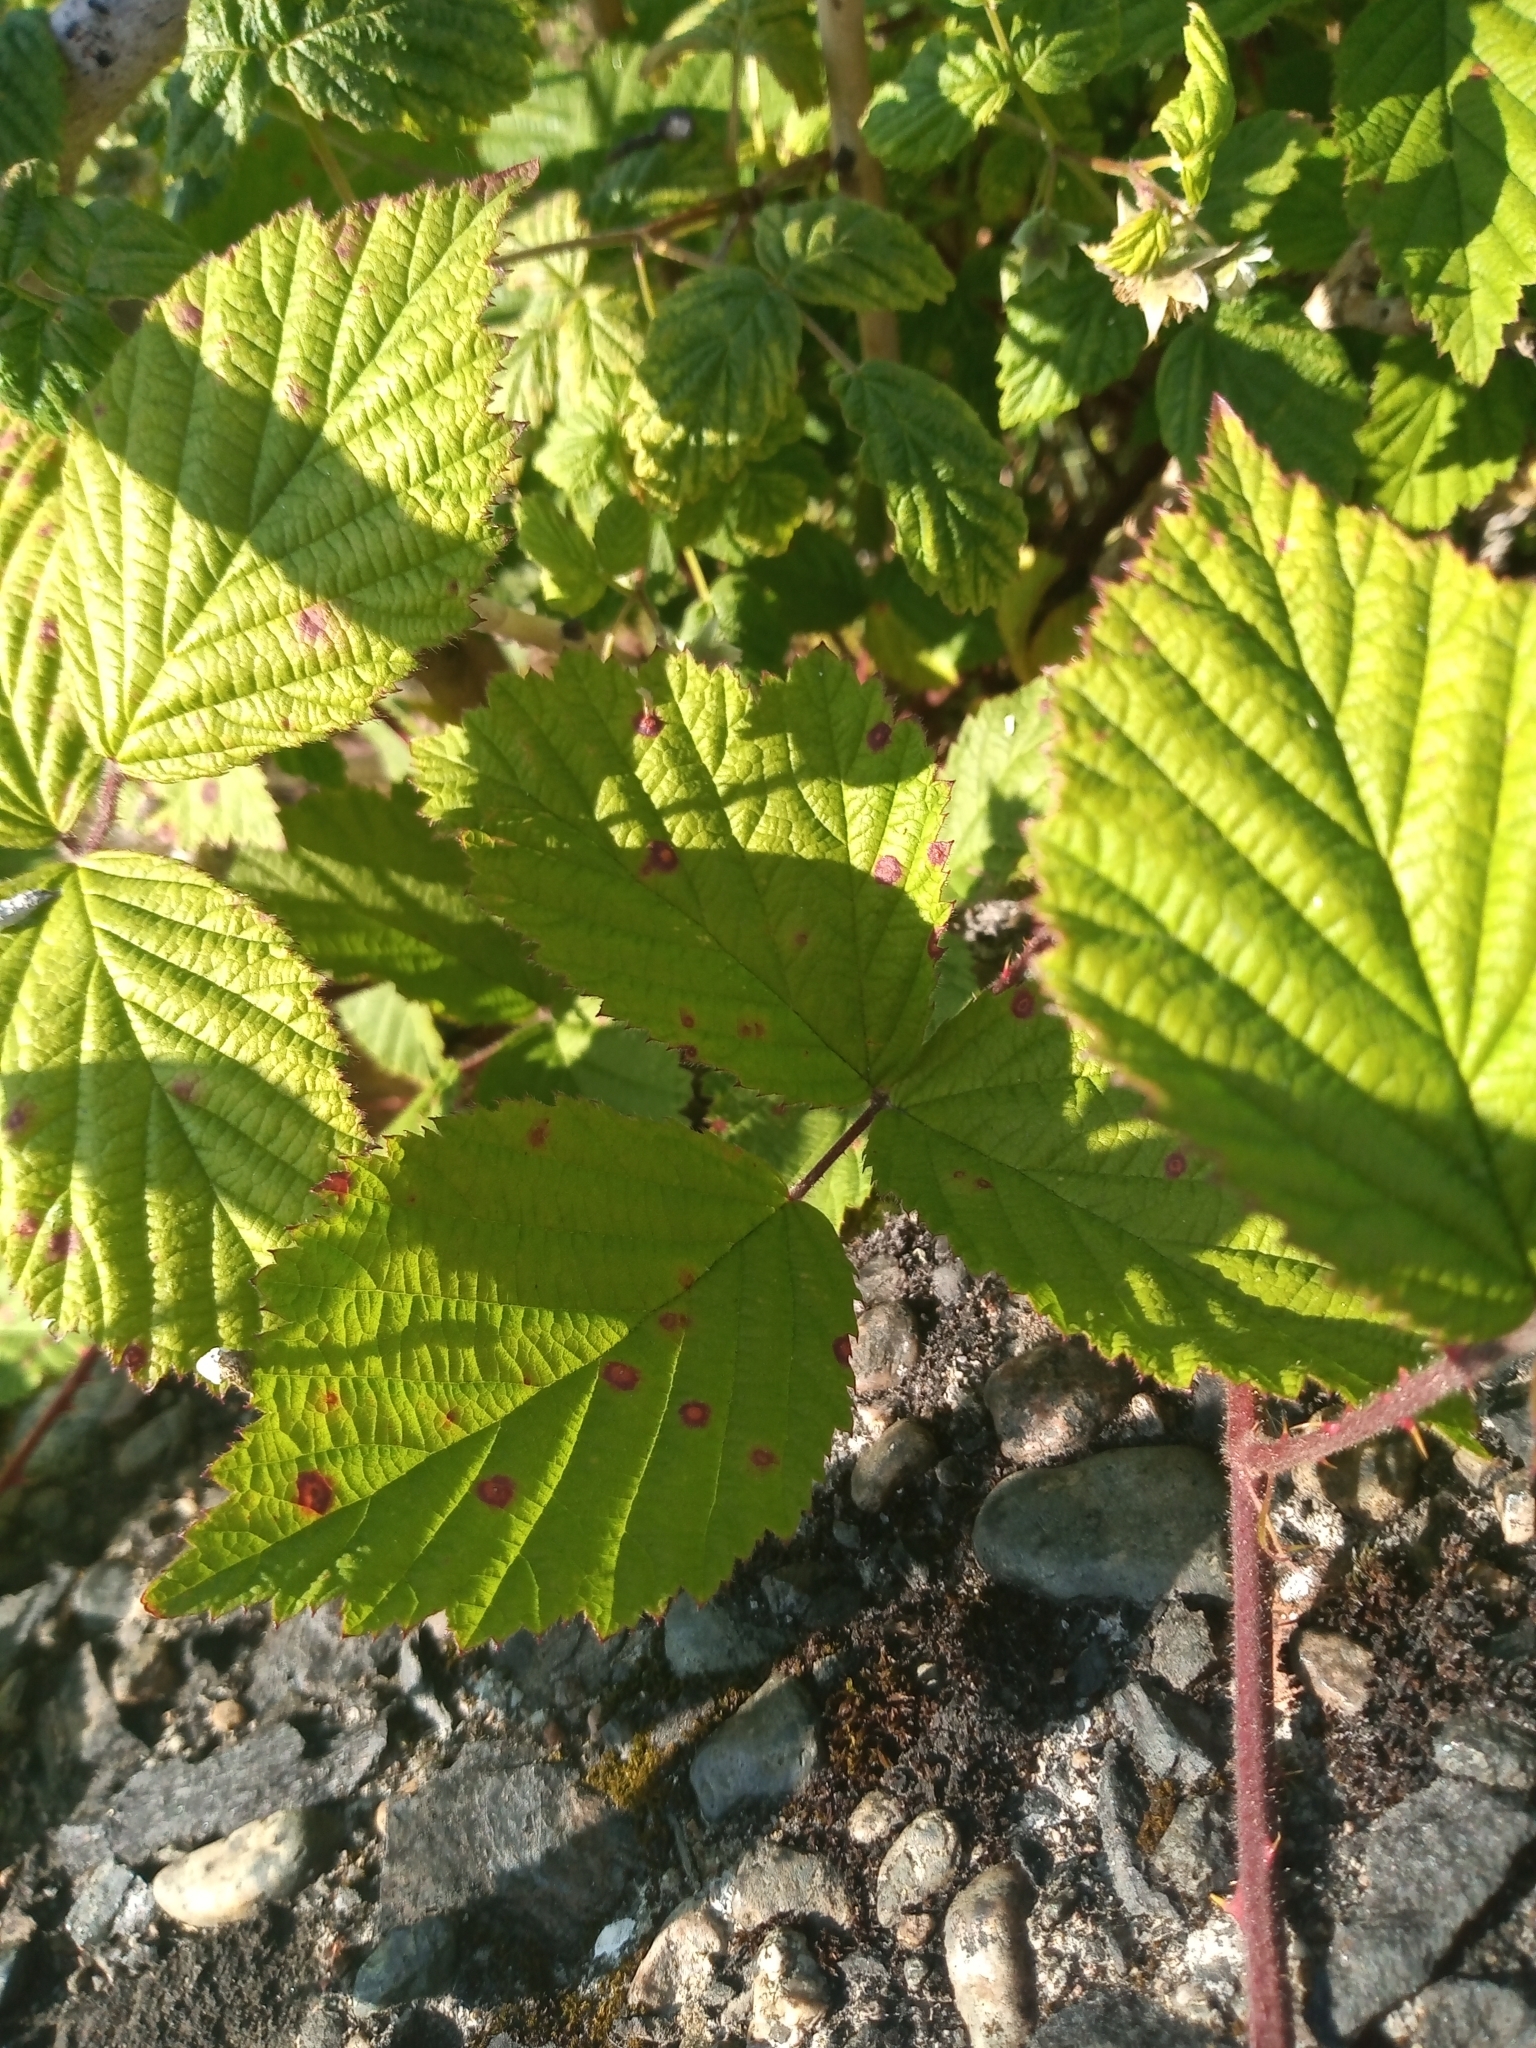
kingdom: Fungi
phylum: Basidiomycota
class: Pucciniomycetes
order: Pucciniales
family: Phragmidiaceae
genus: Phragmidium
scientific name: Phragmidium violaceum
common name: Violet bramble rust
